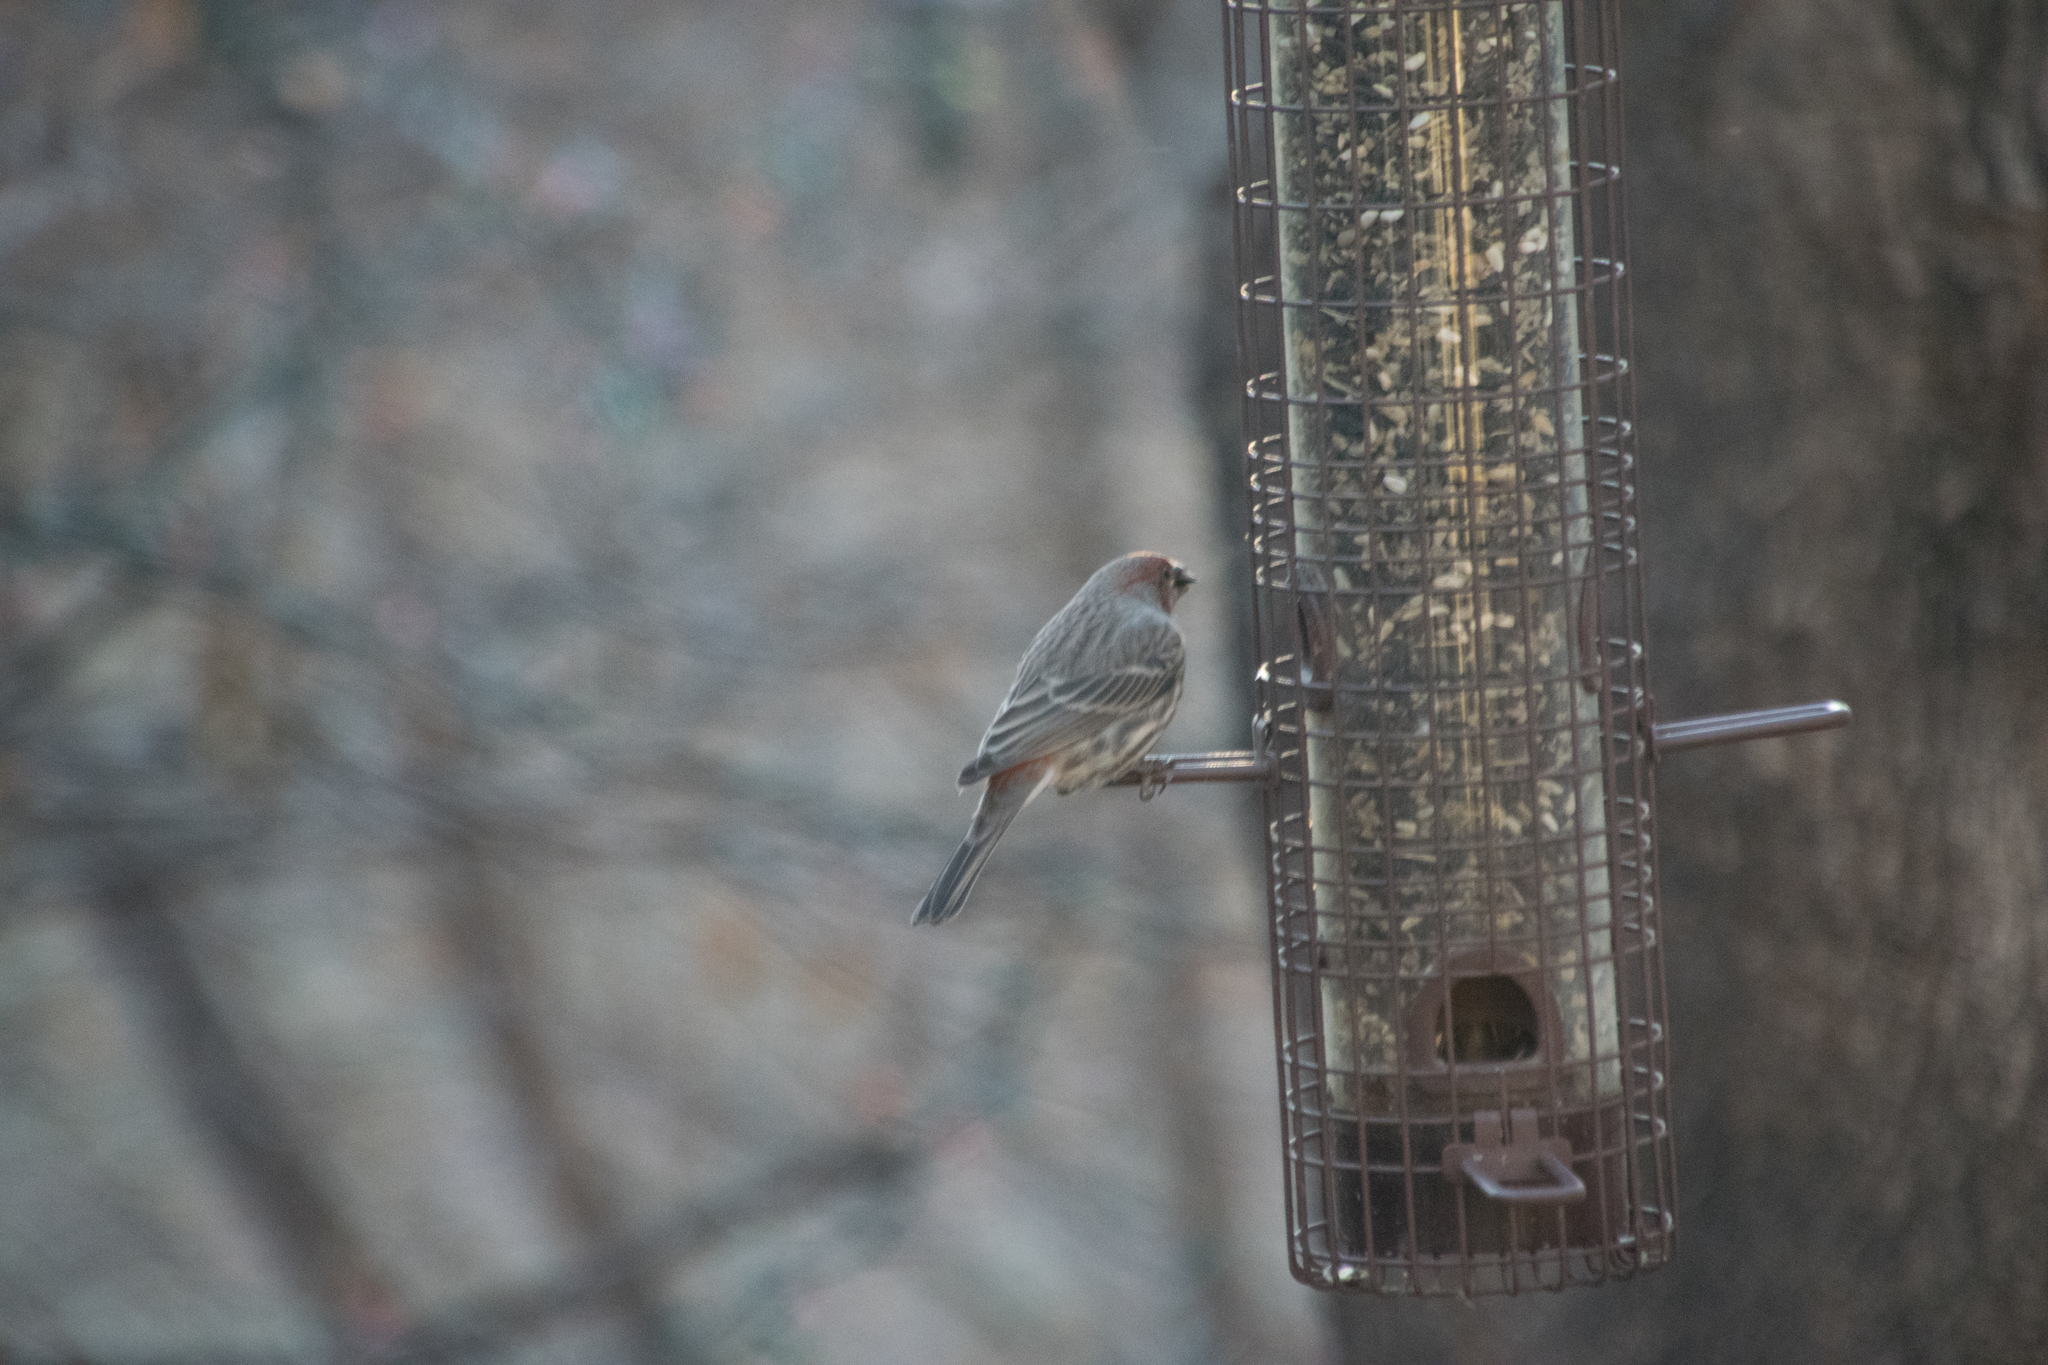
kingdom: Animalia
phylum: Chordata
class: Aves
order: Passeriformes
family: Fringillidae
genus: Haemorhous
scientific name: Haemorhous mexicanus
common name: House finch
